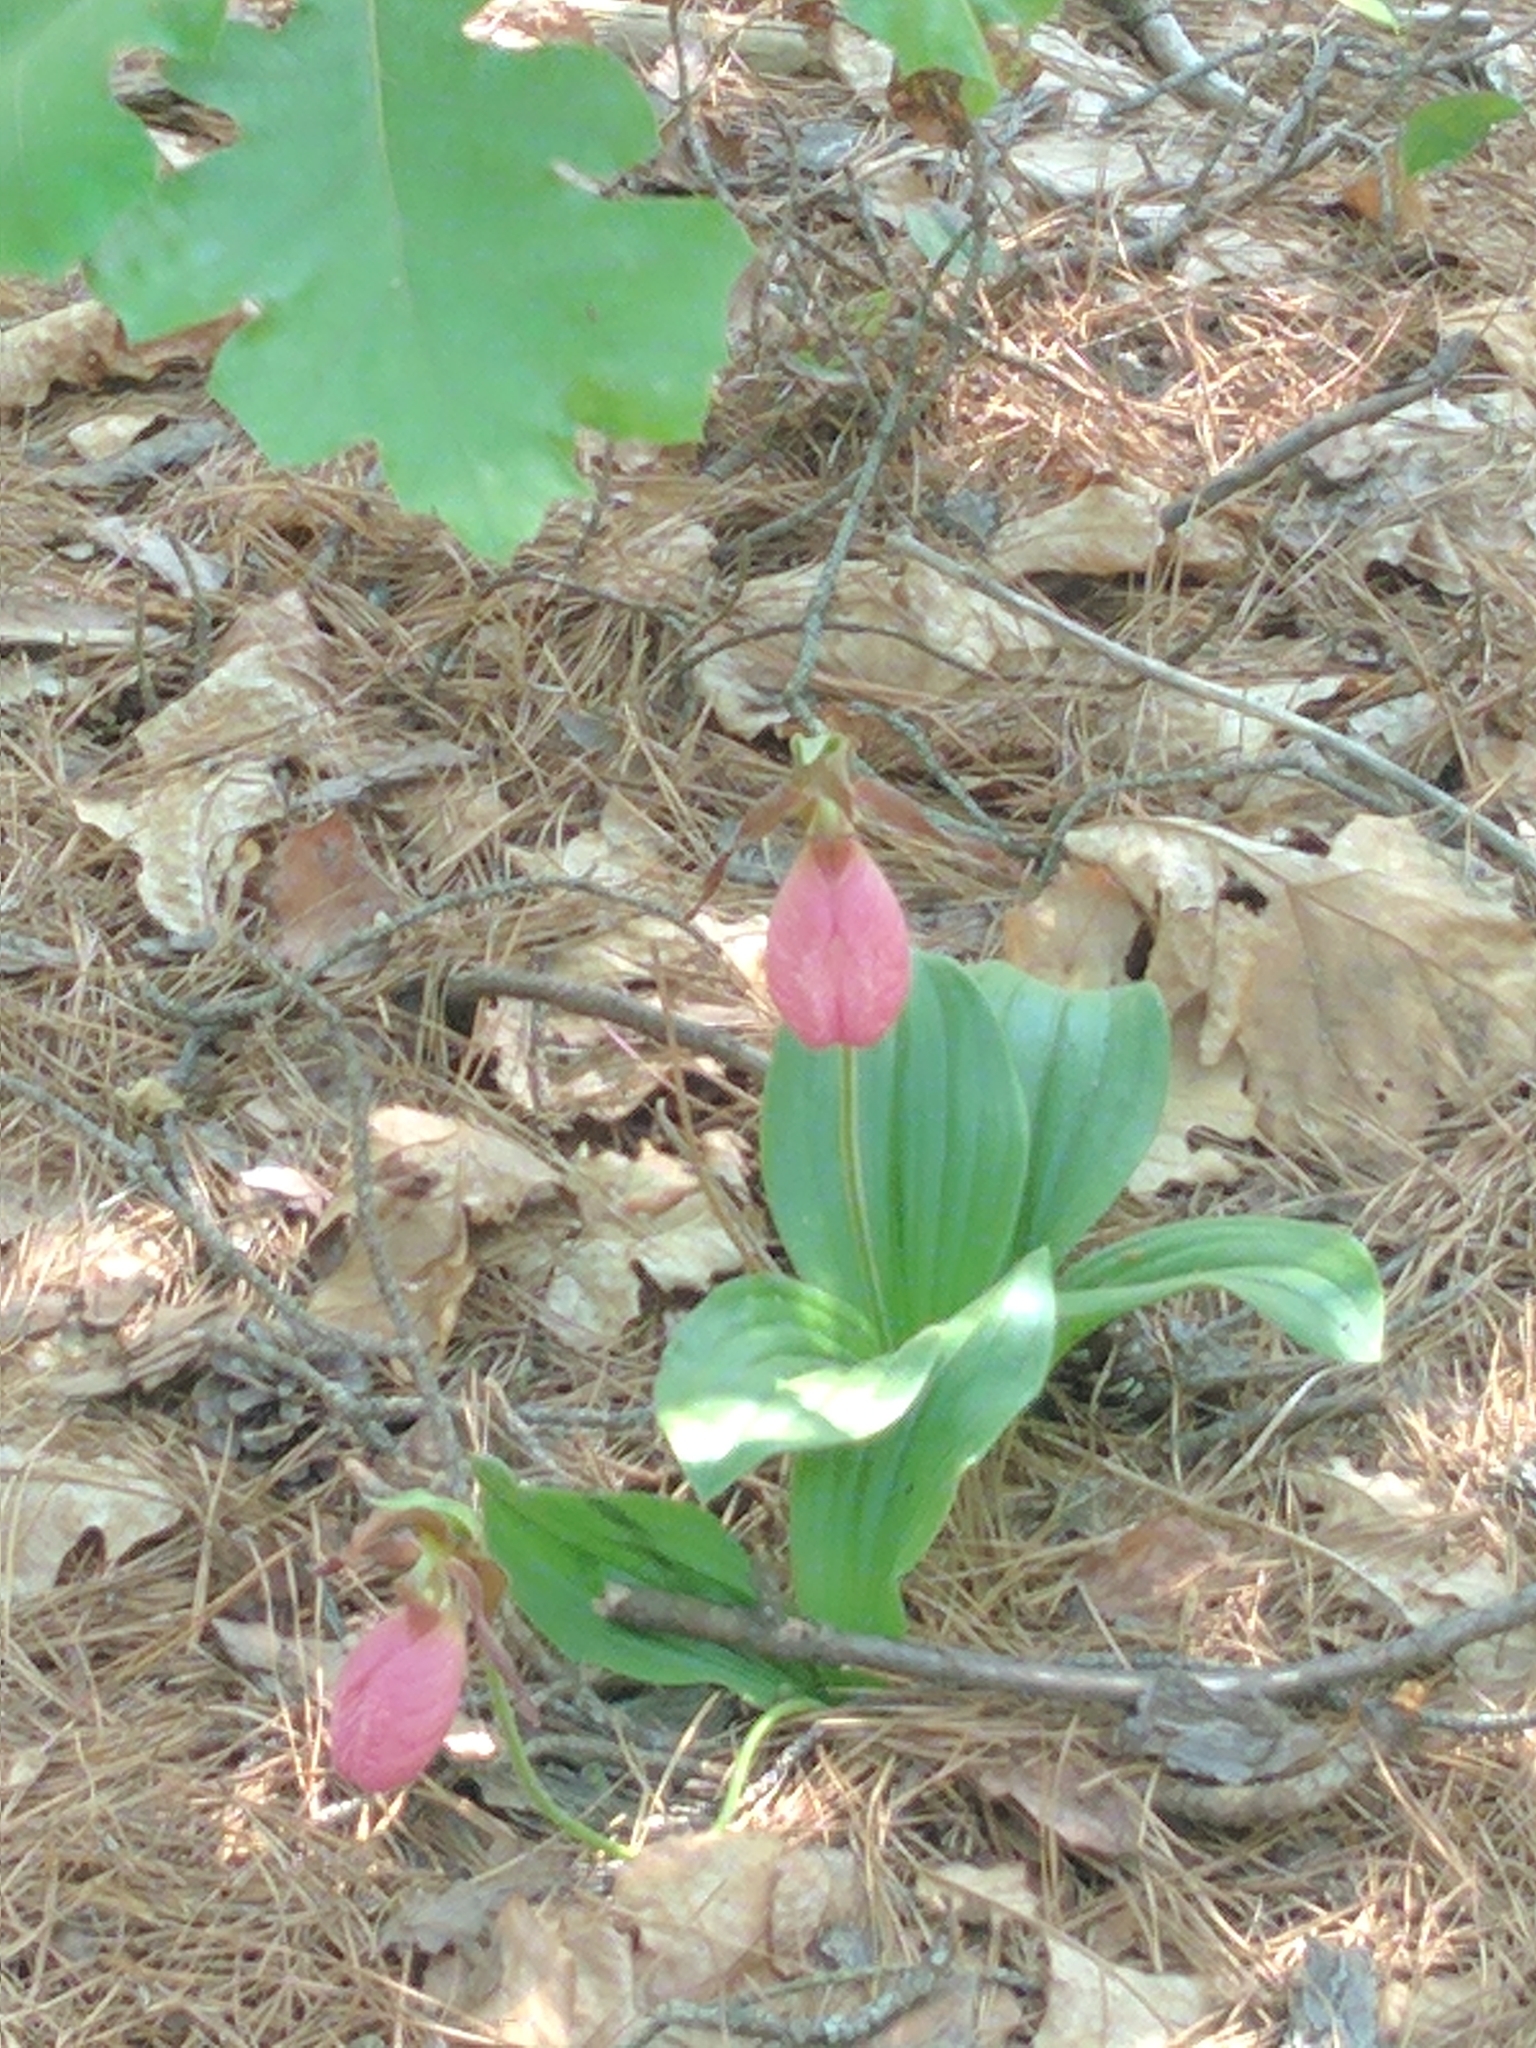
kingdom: Plantae
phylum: Tracheophyta
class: Liliopsida
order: Asparagales
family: Orchidaceae
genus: Cypripedium
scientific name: Cypripedium acaule
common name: Pink lady's-slipper
